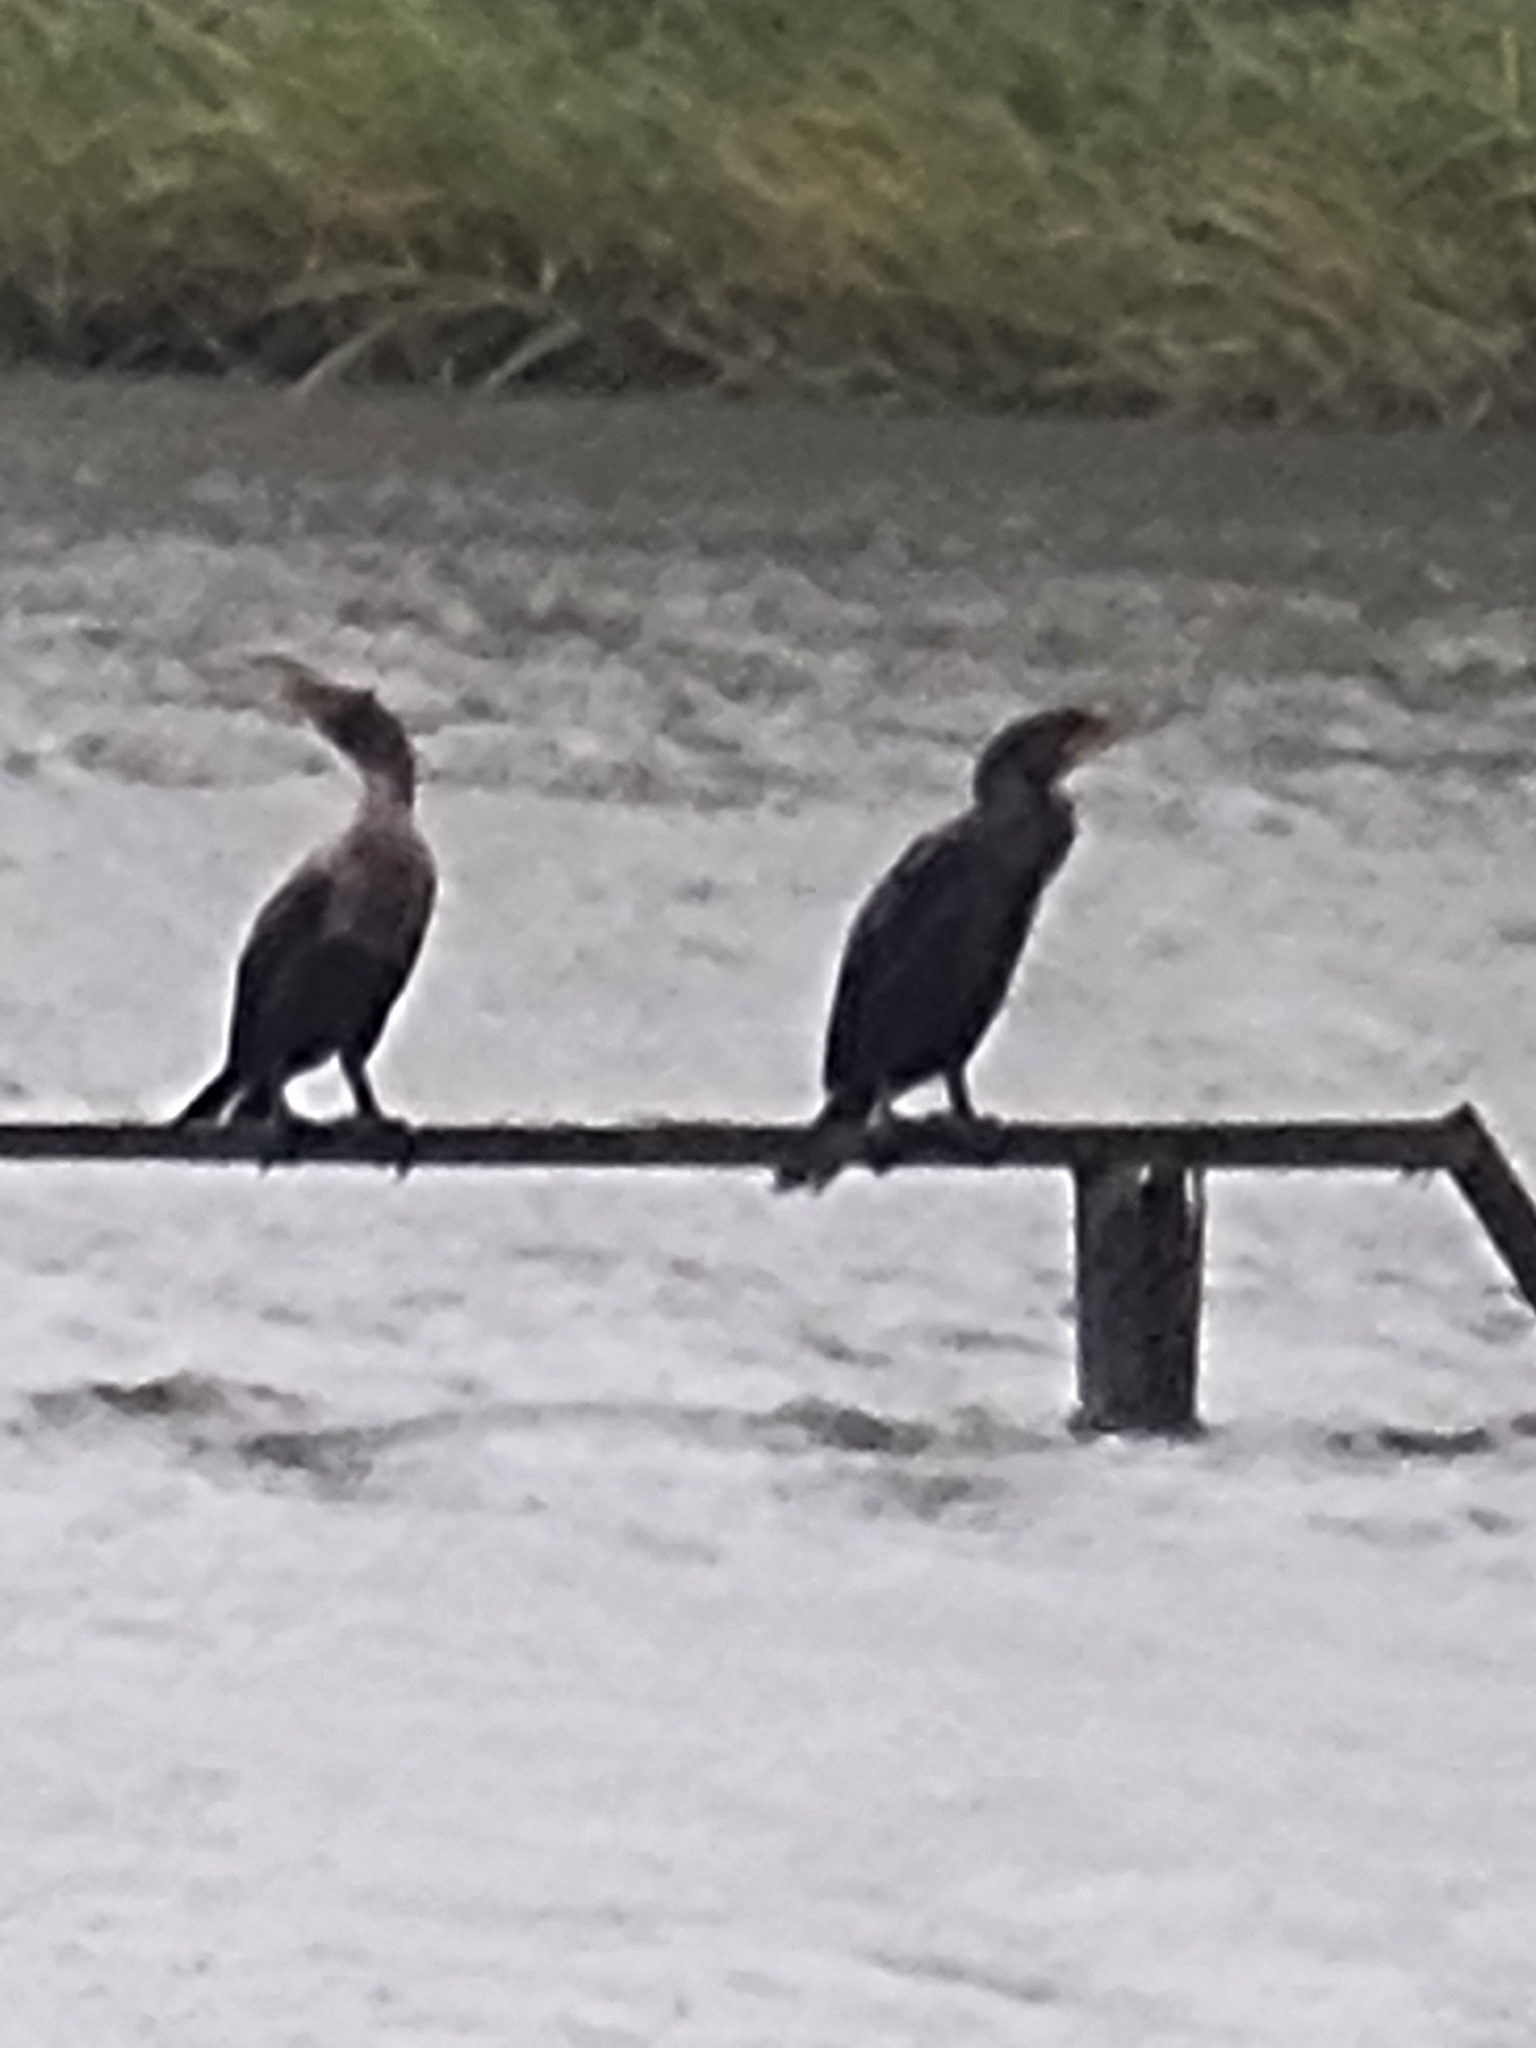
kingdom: Animalia
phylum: Chordata
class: Aves
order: Suliformes
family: Phalacrocoracidae
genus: Phalacrocorax
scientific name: Phalacrocorax auritus
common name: Double-crested cormorant
